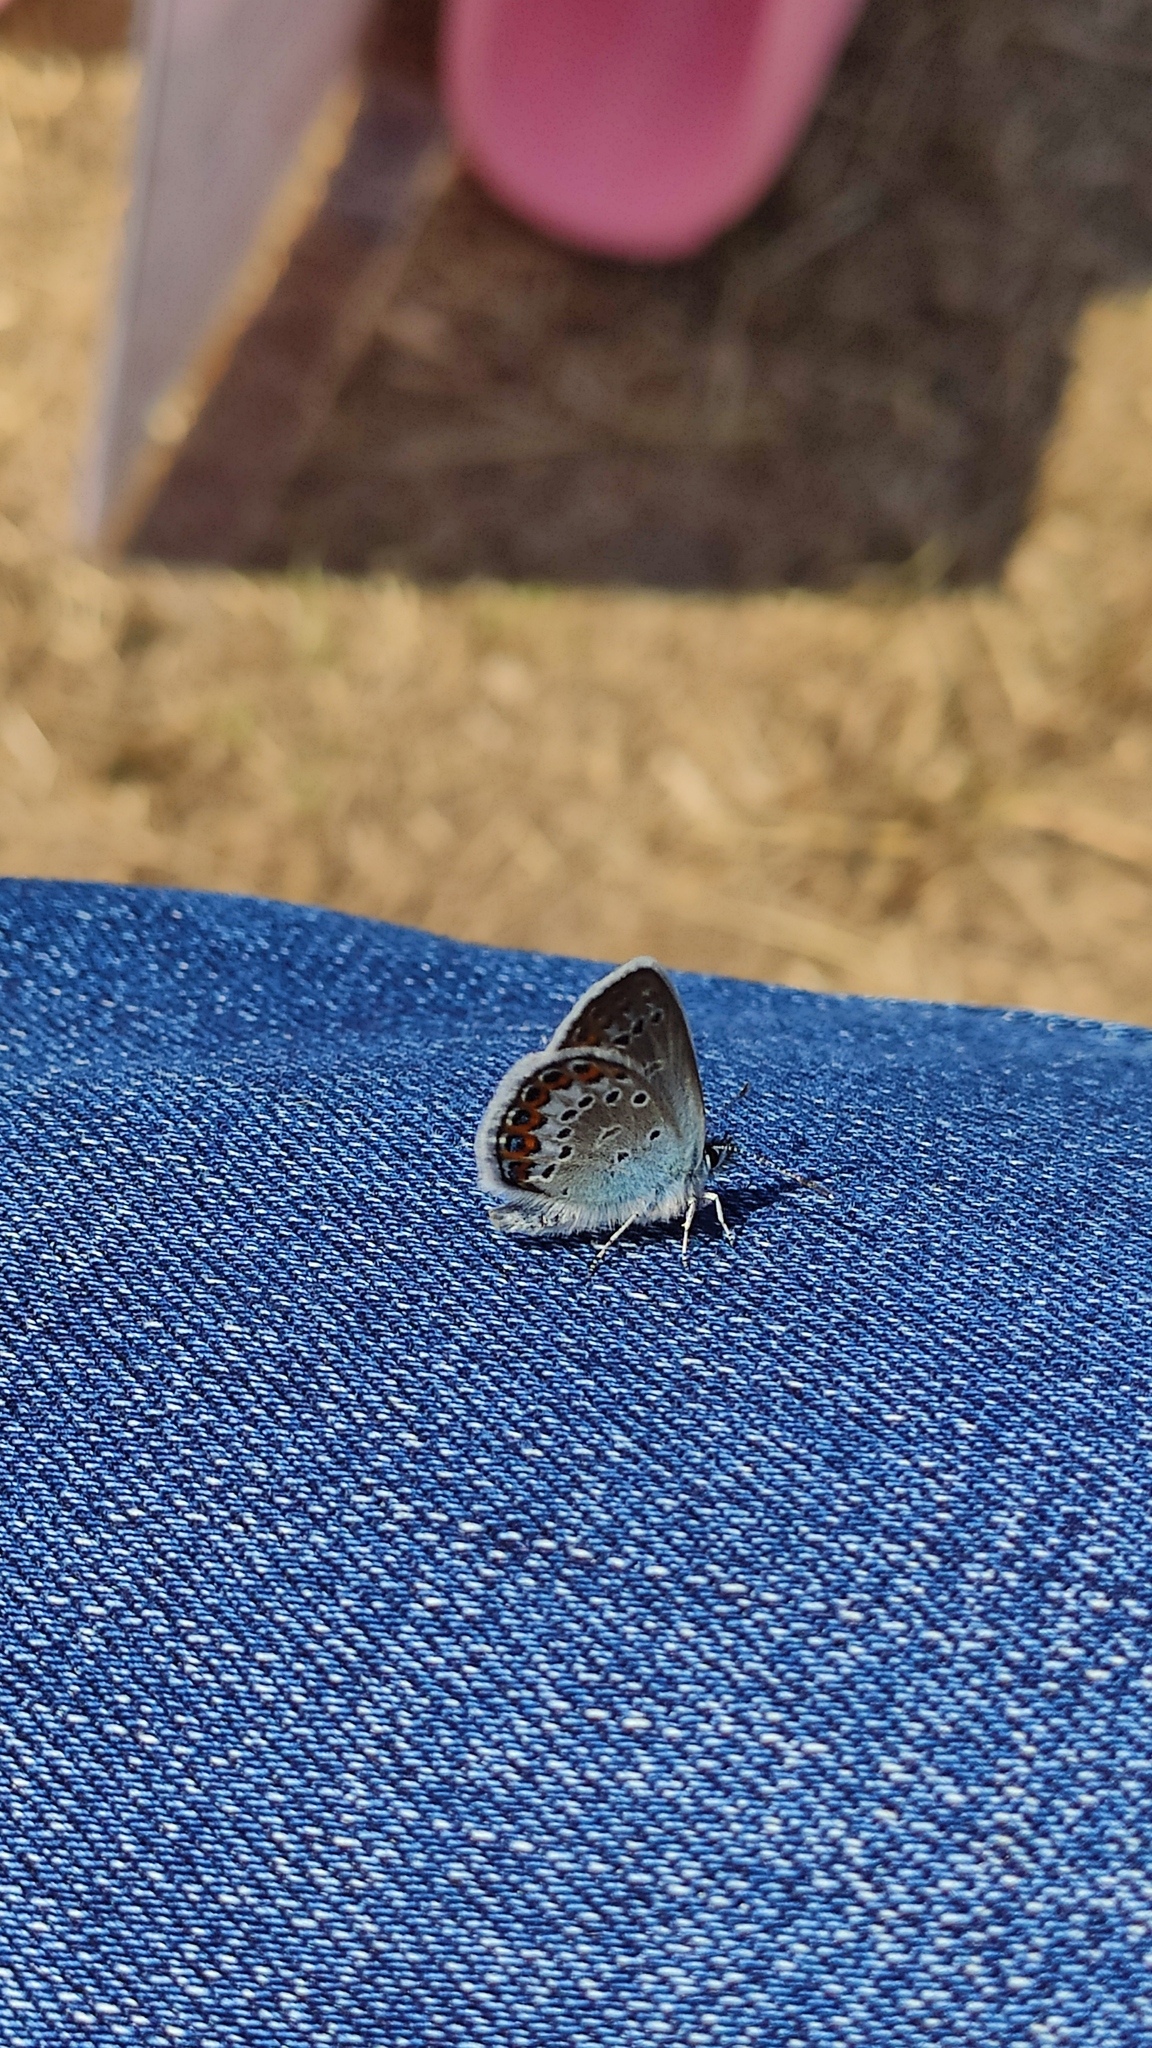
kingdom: Animalia
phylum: Arthropoda
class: Insecta
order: Lepidoptera
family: Lycaenidae
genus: Plebejus
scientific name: Plebejus argus
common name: Silver-studded blue
